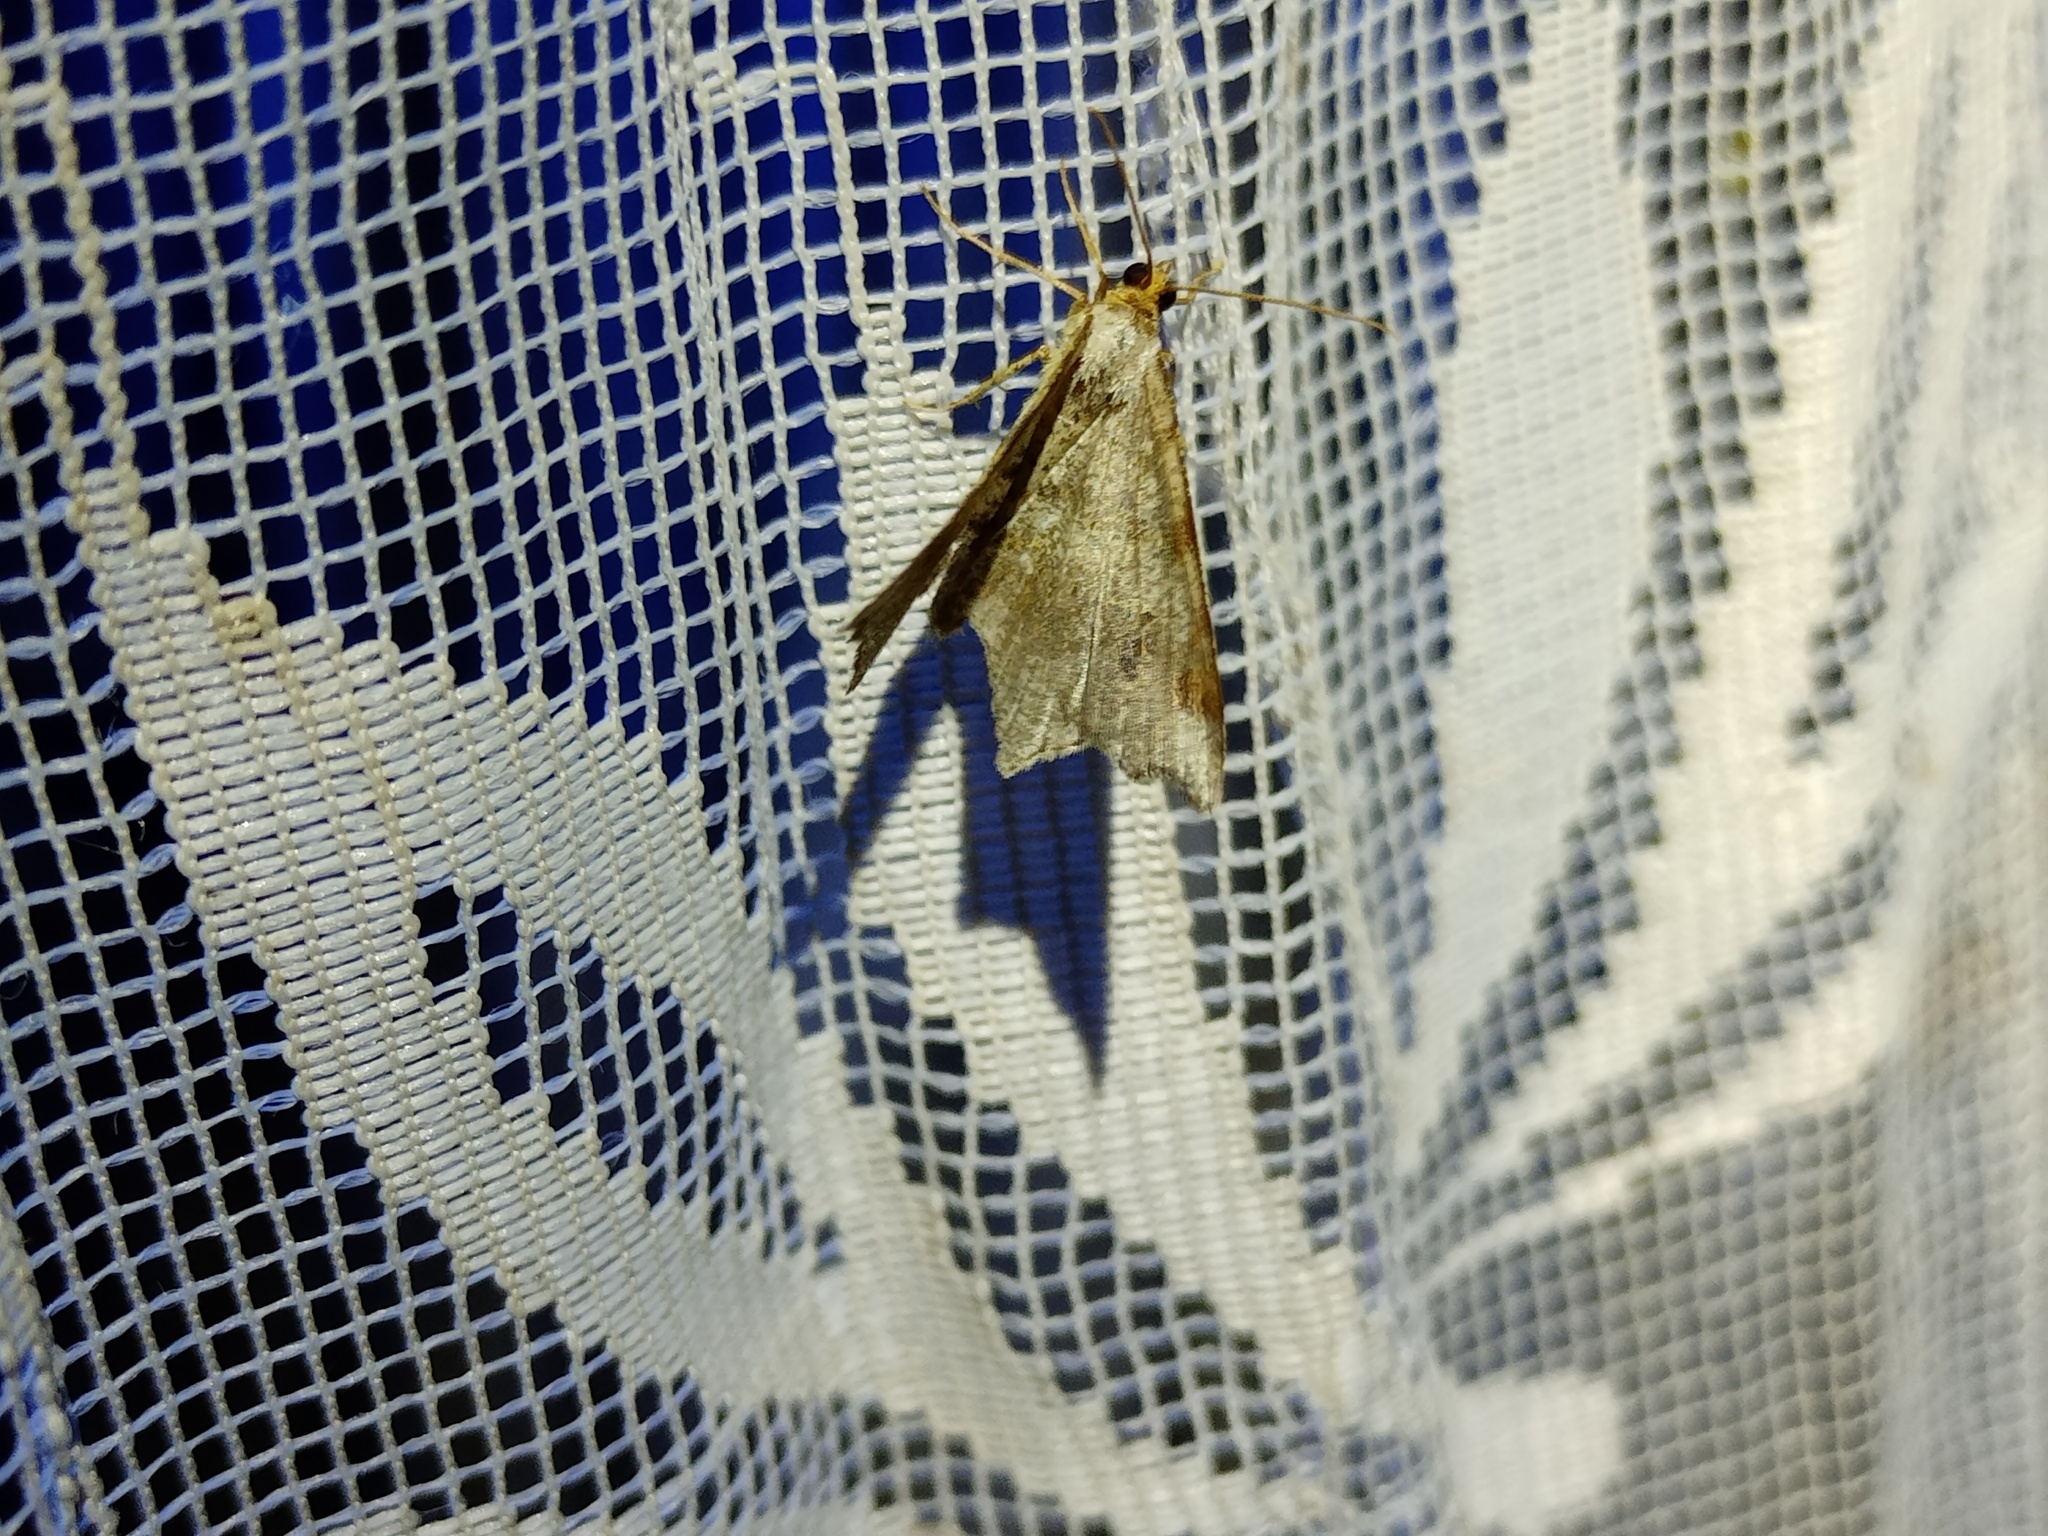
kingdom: Animalia
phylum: Arthropoda
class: Insecta
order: Lepidoptera
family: Geometridae
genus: Macaria
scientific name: Macaria alternata
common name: Sharp-angled peacock
